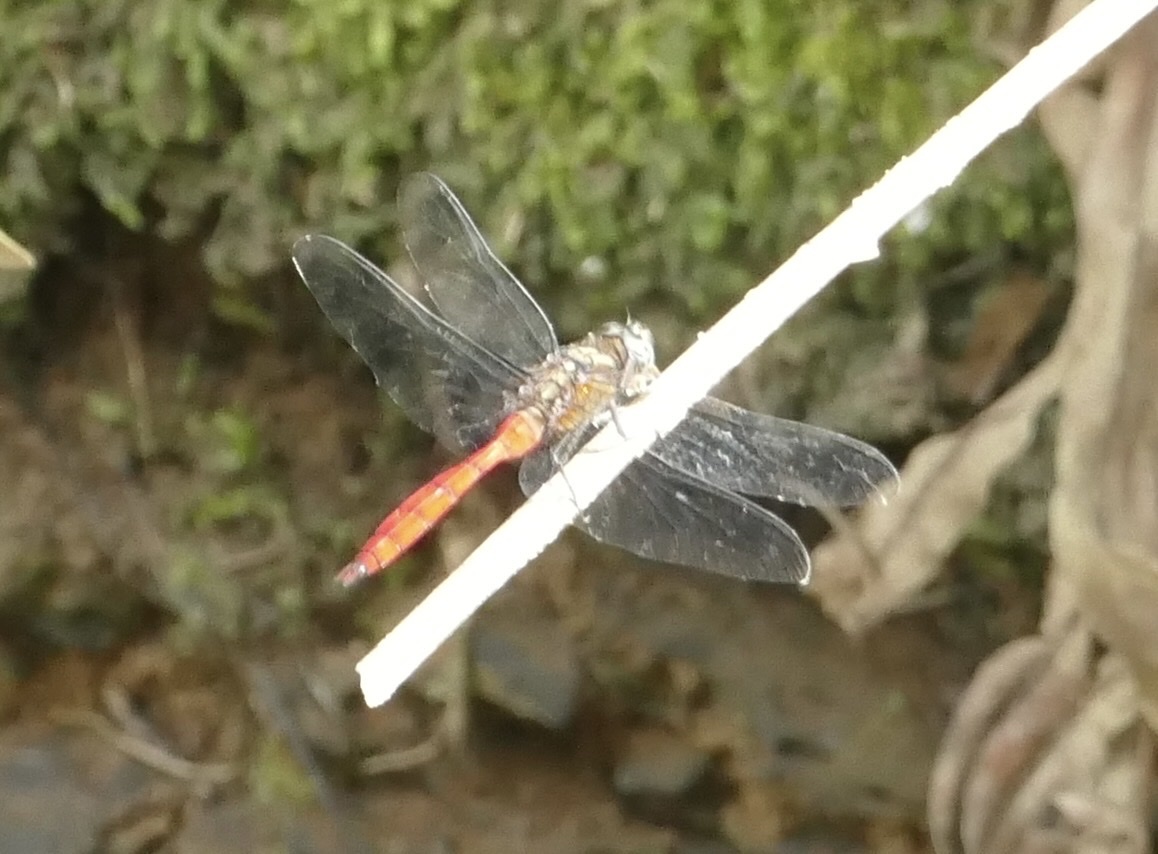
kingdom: Animalia
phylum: Arthropoda
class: Insecta
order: Odonata
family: Libellulidae
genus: Orthetrum
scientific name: Orthetrum villosovittatum
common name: Firery skimmer
